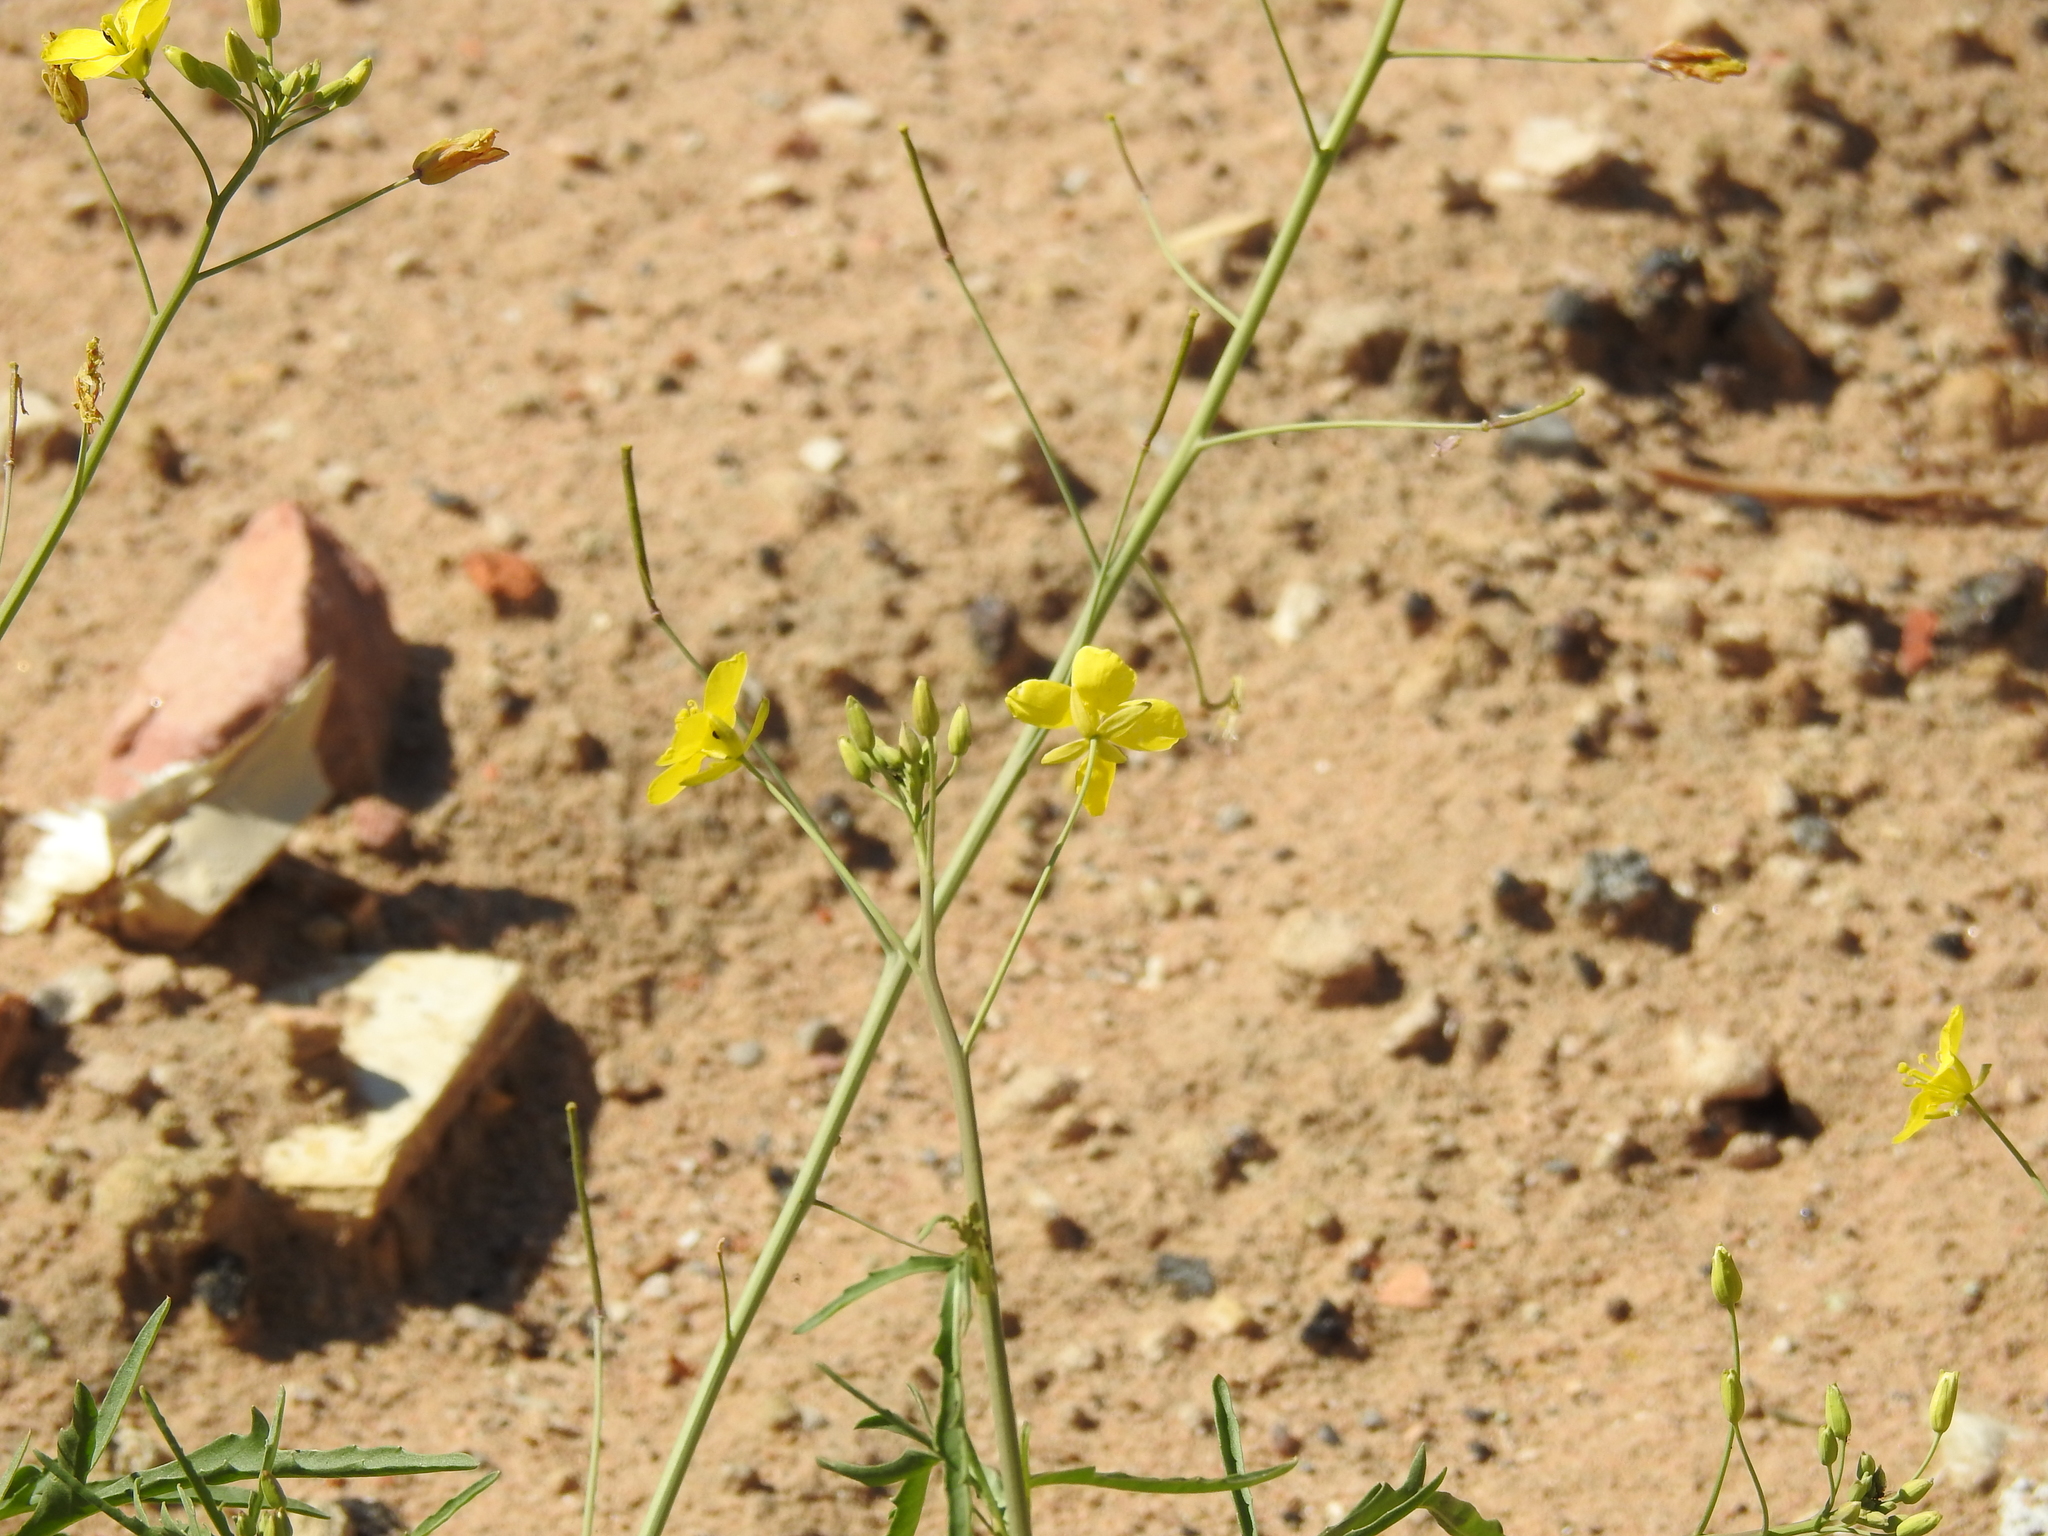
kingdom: Plantae
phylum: Tracheophyta
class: Magnoliopsida
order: Brassicales
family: Brassicaceae
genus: Diplotaxis
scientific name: Diplotaxis tenuifolia
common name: Perennial wall-rocket
